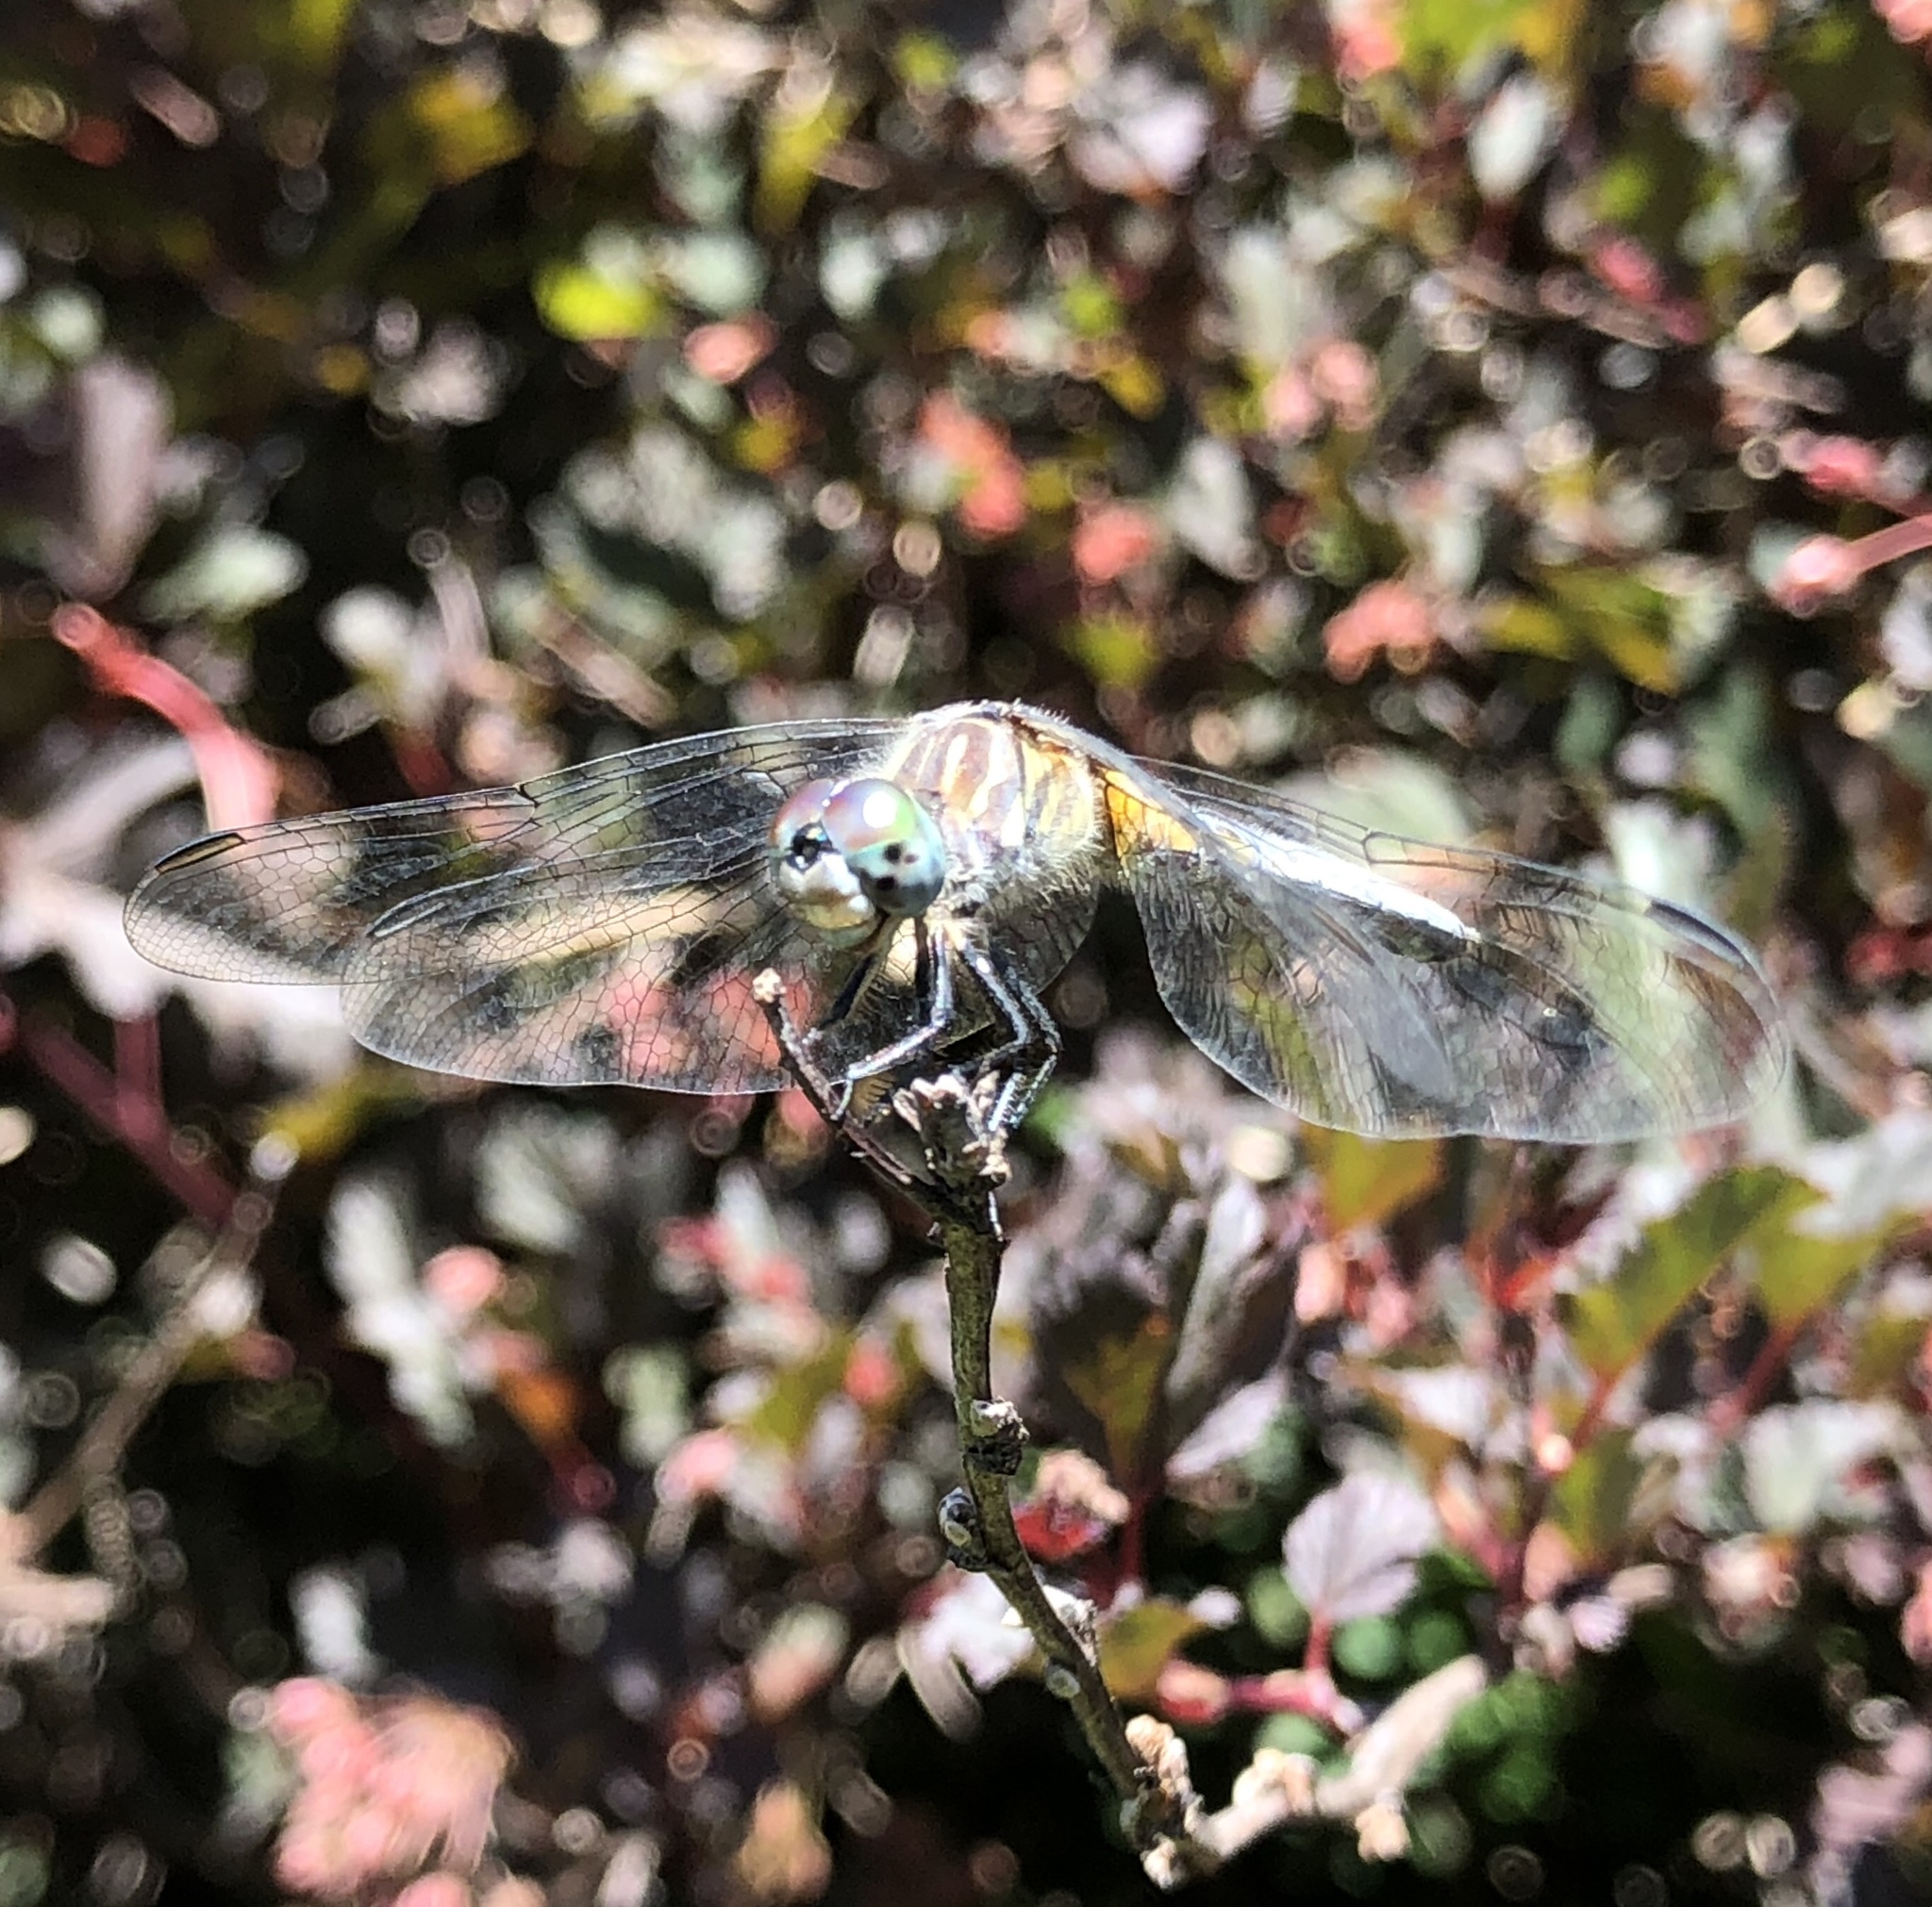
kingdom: Animalia
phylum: Arthropoda
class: Insecta
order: Odonata
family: Libellulidae
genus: Pachydiplax
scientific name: Pachydiplax longipennis
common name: Blue dasher
